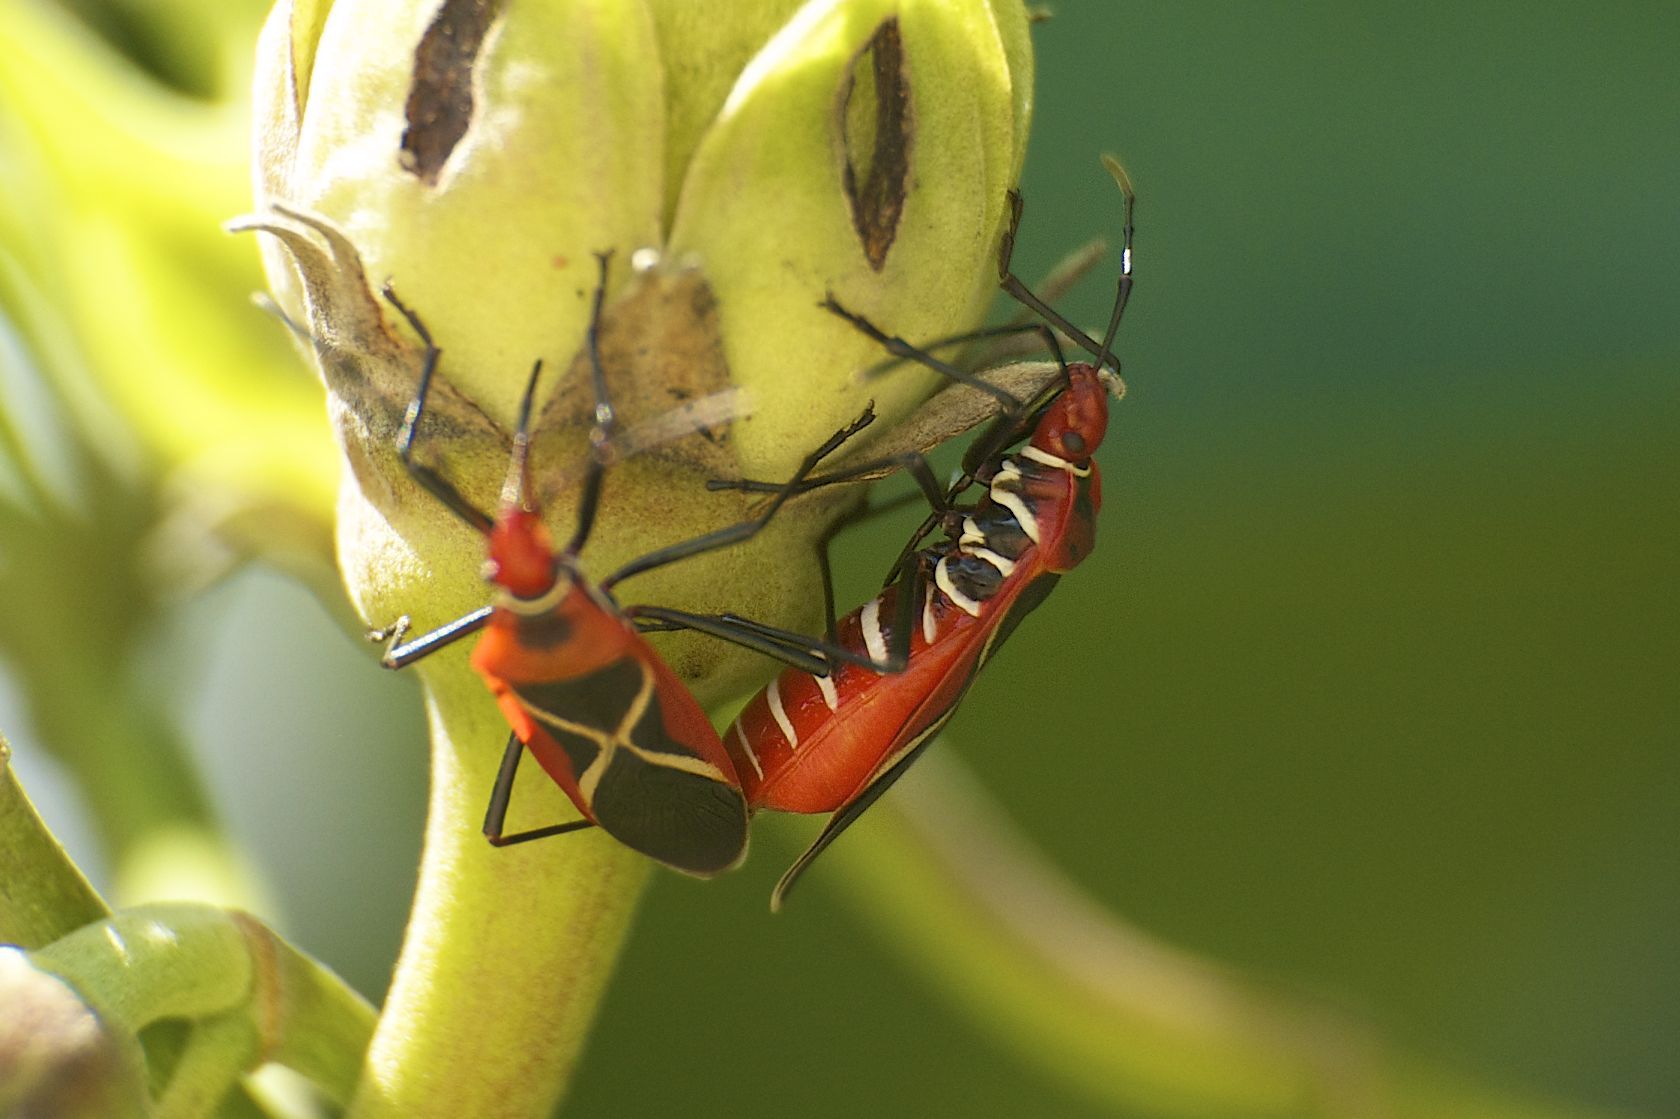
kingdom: Animalia
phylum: Arthropoda
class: Insecta
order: Hemiptera
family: Pyrrhocoridae
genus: Dysdercus
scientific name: Dysdercus decussatus
